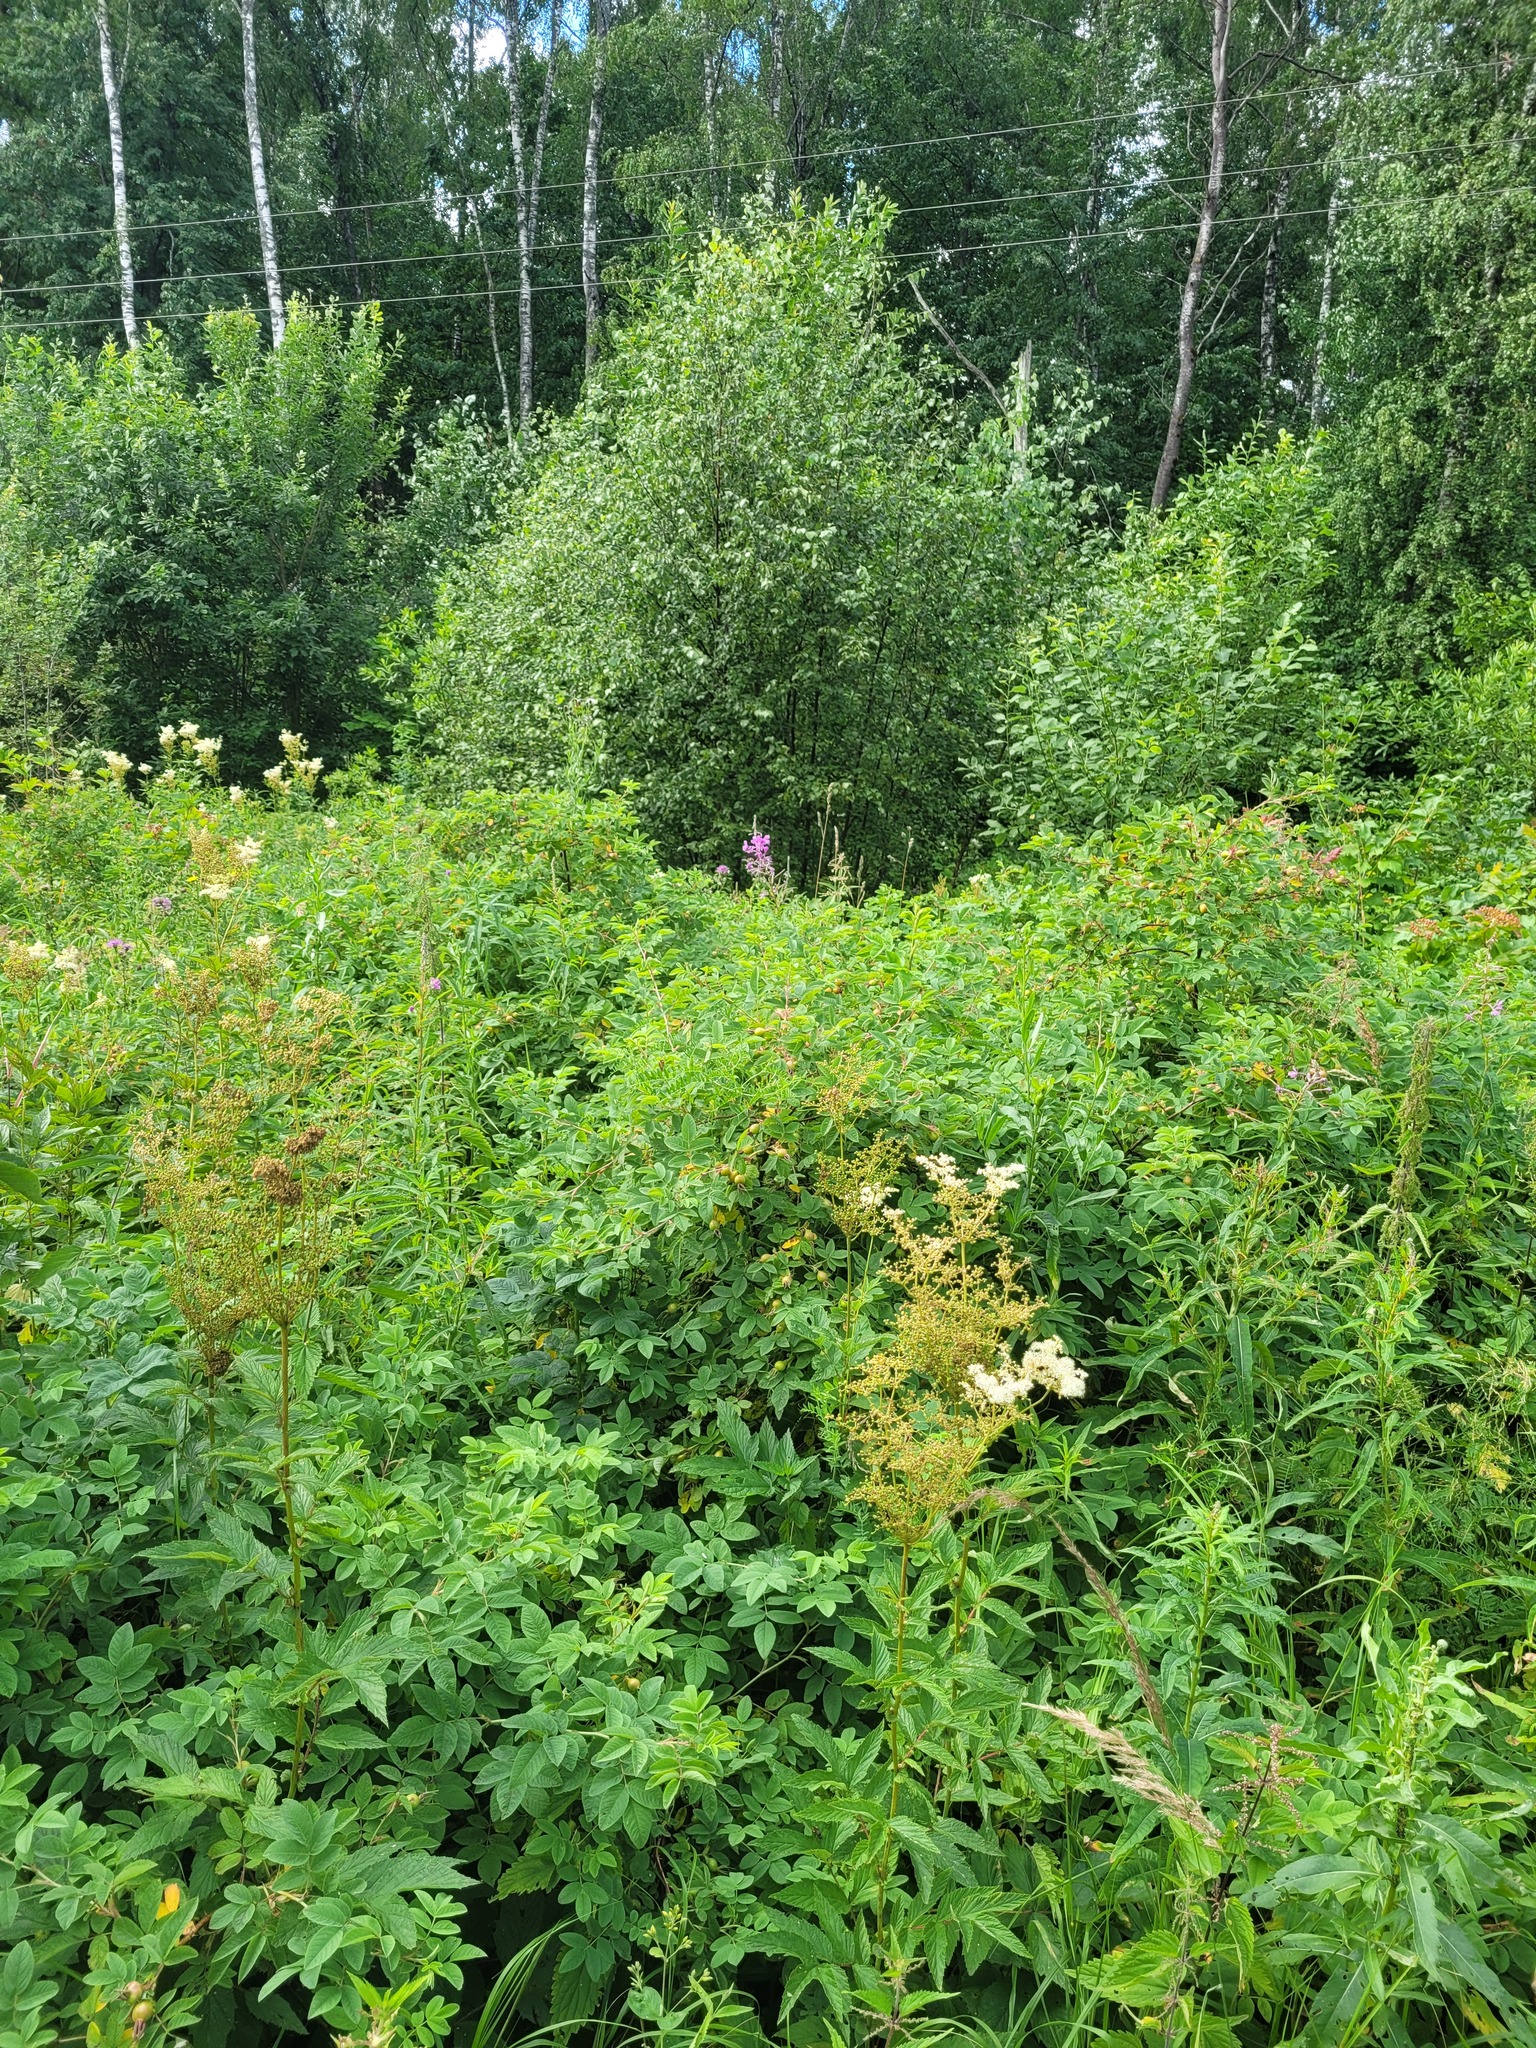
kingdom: Plantae
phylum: Tracheophyta
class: Magnoliopsida
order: Rosales
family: Rosaceae
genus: Filipendula
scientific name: Filipendula ulmaria
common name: Meadowsweet
